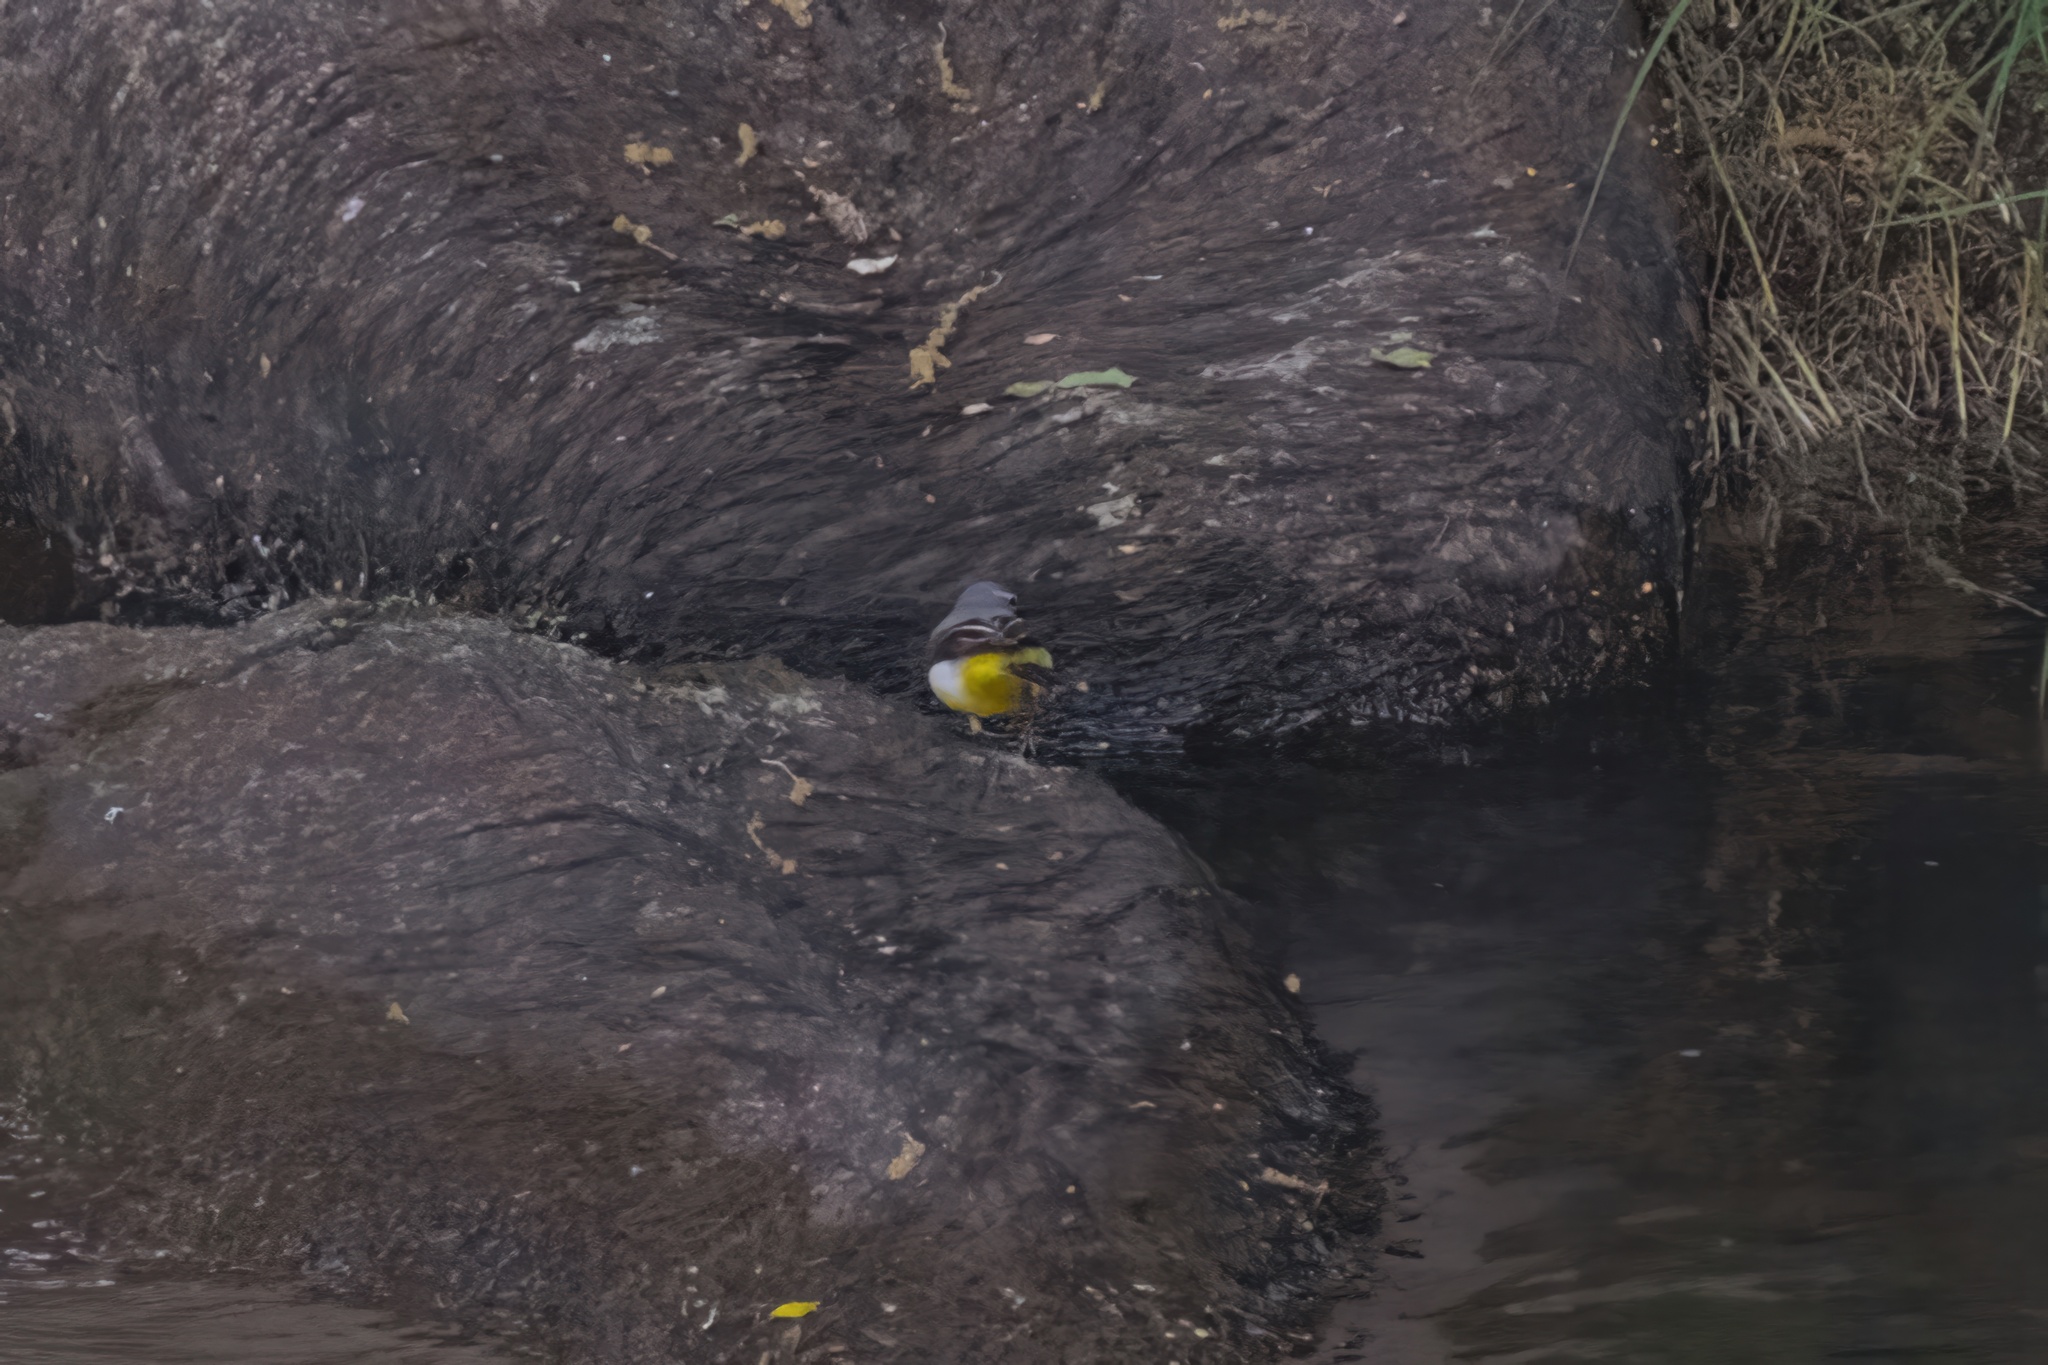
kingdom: Animalia
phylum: Chordata
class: Aves
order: Passeriformes
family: Motacillidae
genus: Motacilla
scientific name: Motacilla cinerea
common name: Grey wagtail
